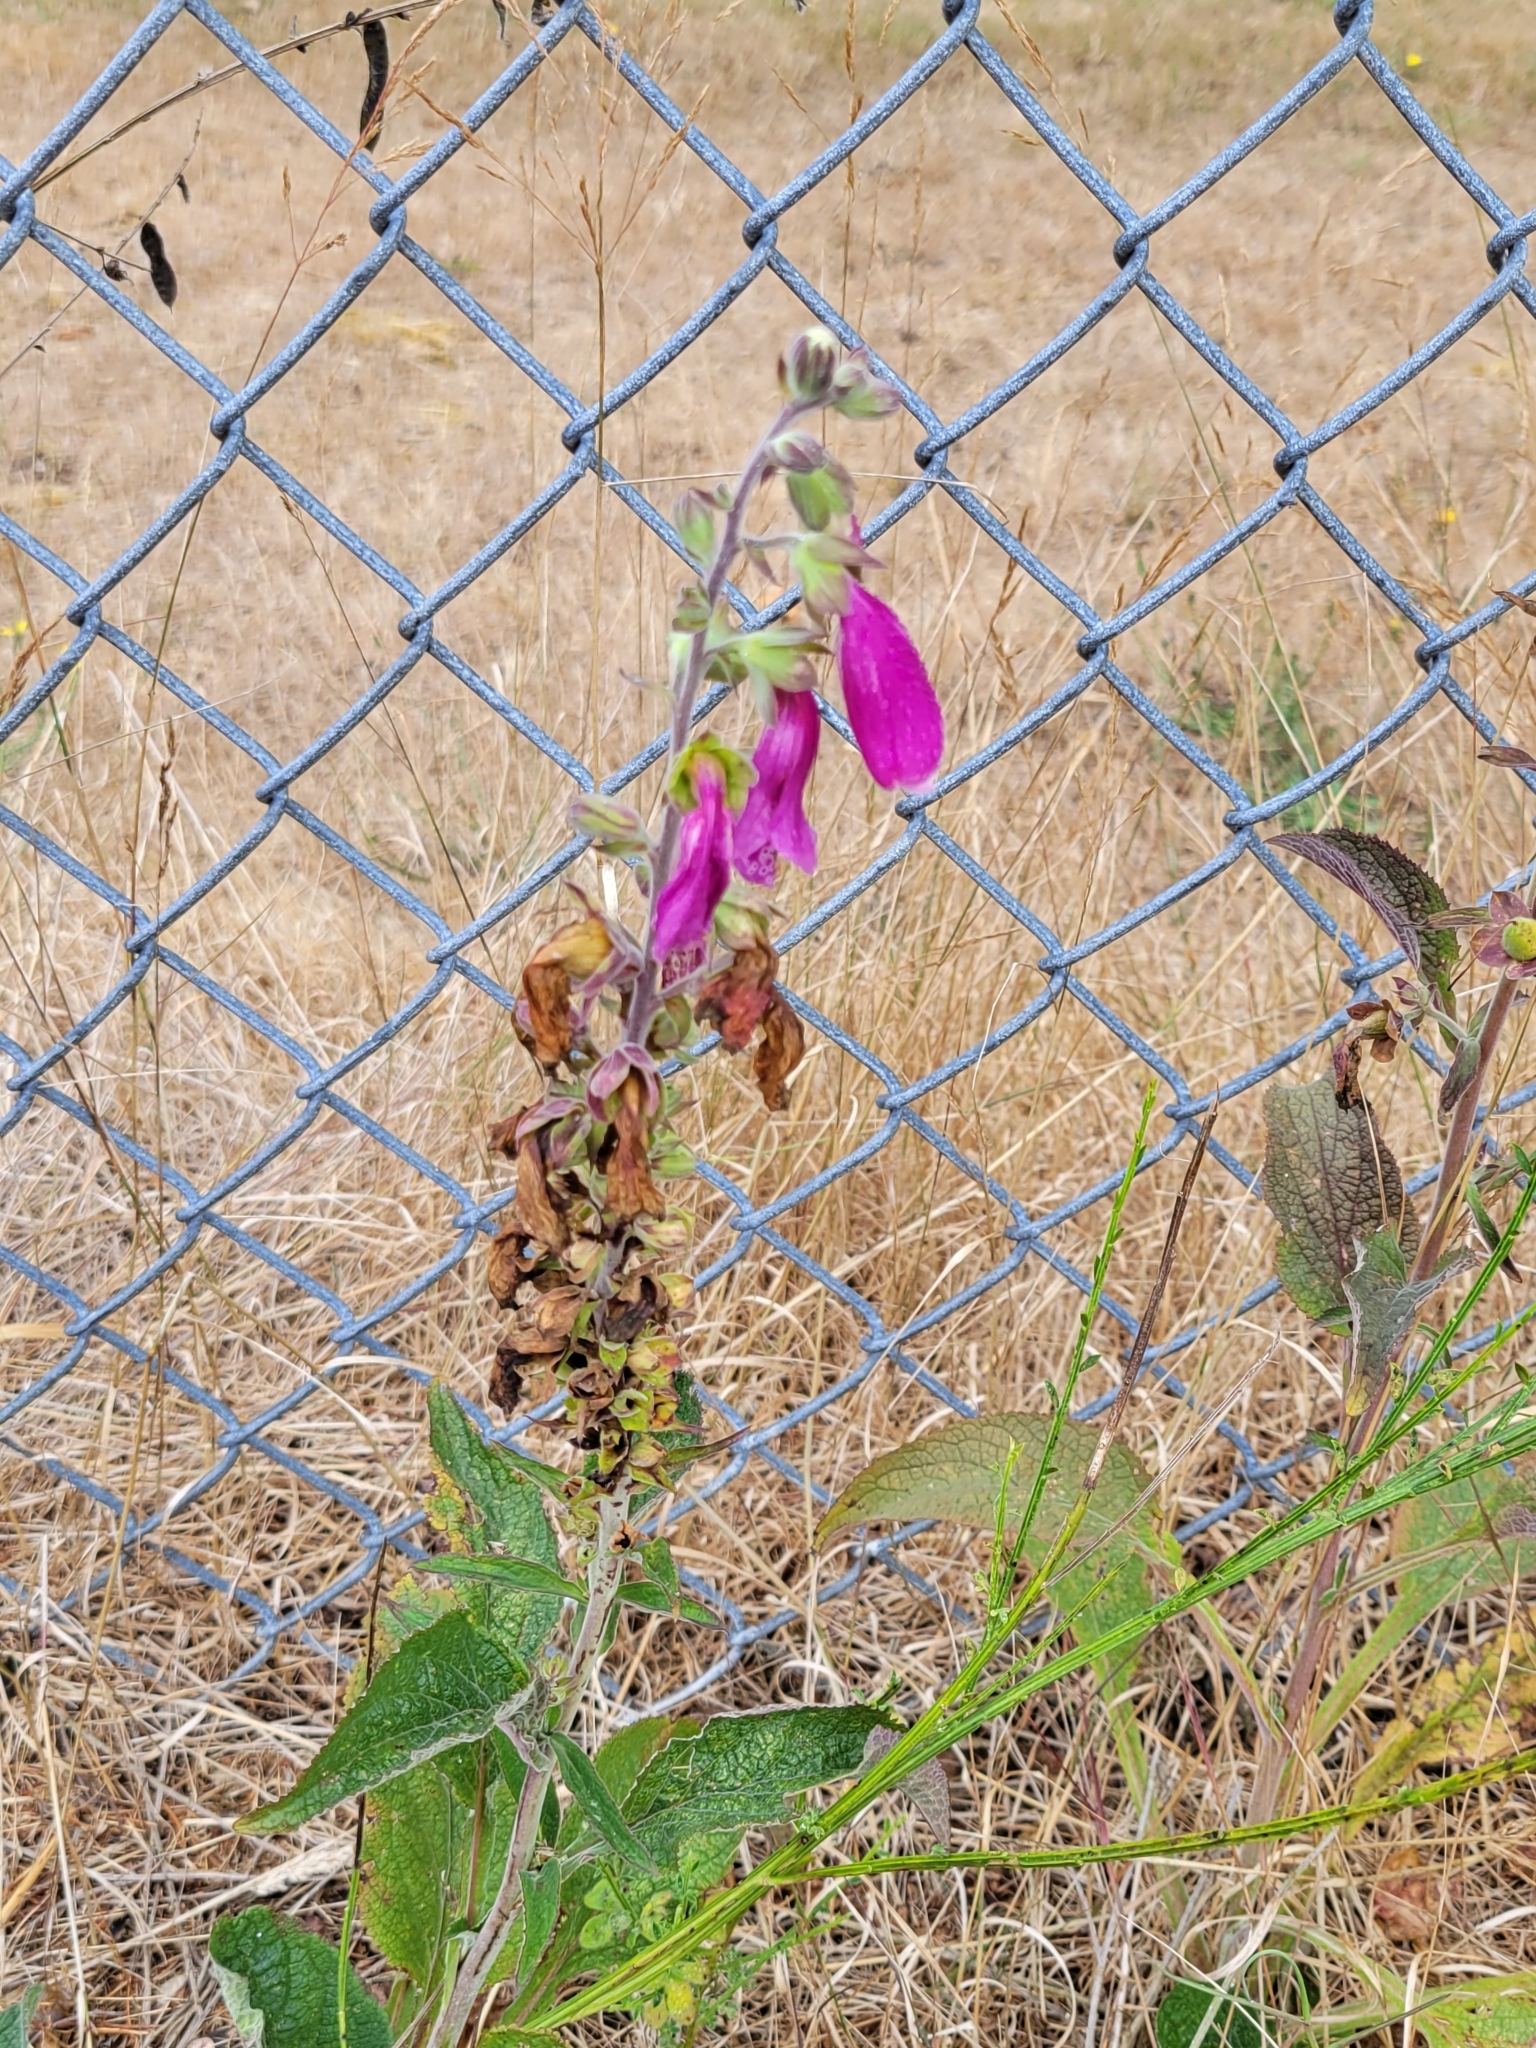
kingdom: Plantae
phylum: Tracheophyta
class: Magnoliopsida
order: Lamiales
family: Plantaginaceae
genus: Digitalis
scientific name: Digitalis purpurea
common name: Foxglove
